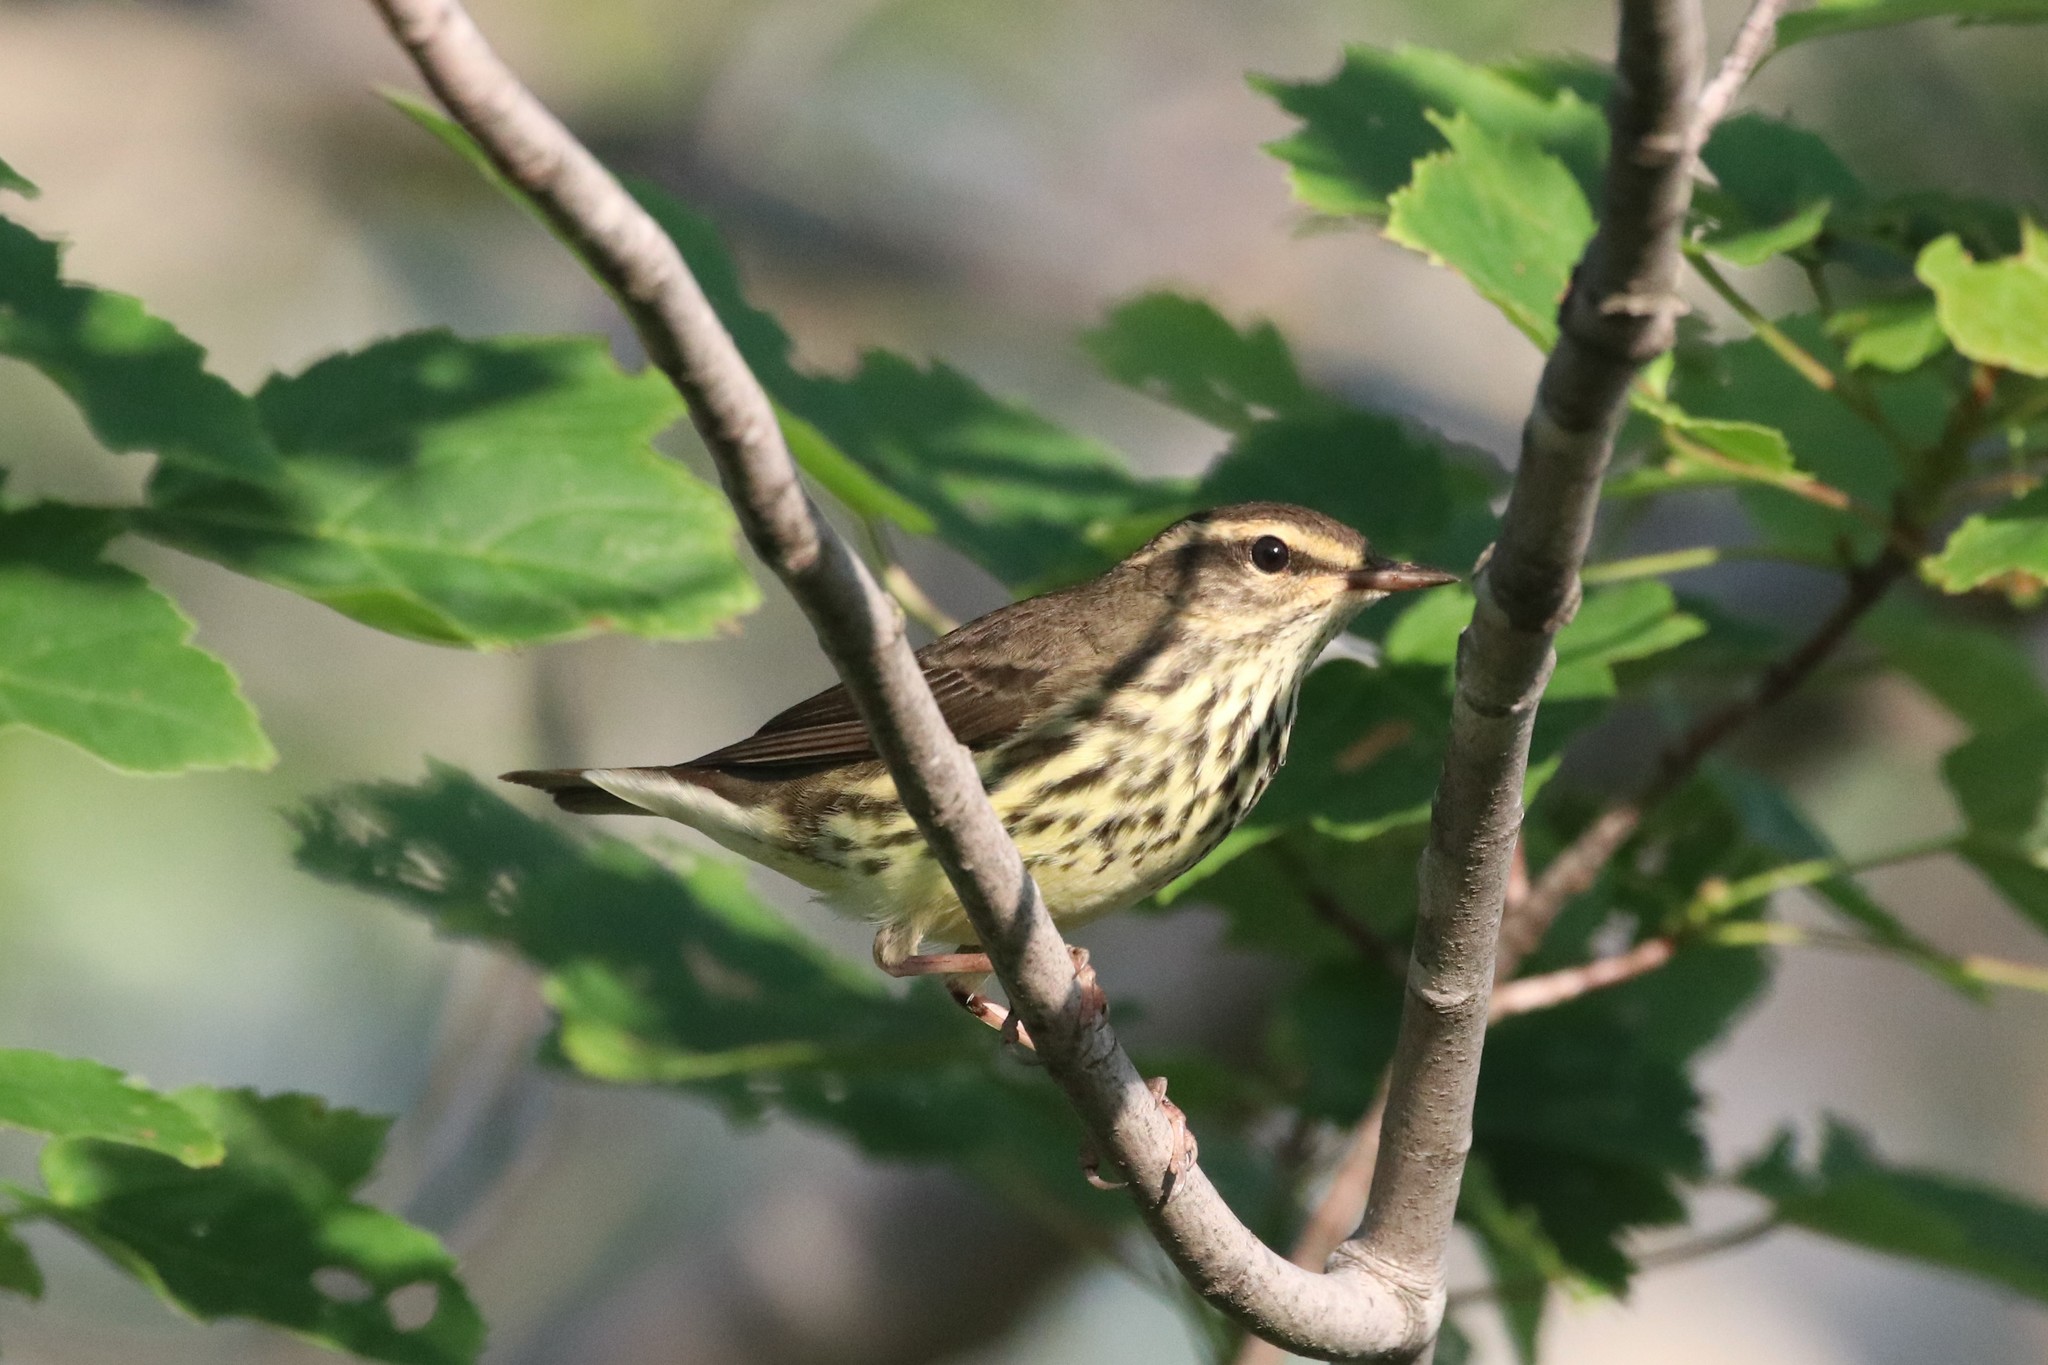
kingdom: Animalia
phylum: Chordata
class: Aves
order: Passeriformes
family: Parulidae
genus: Parkesia
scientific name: Parkesia noveboracensis
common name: Northern waterthrush
